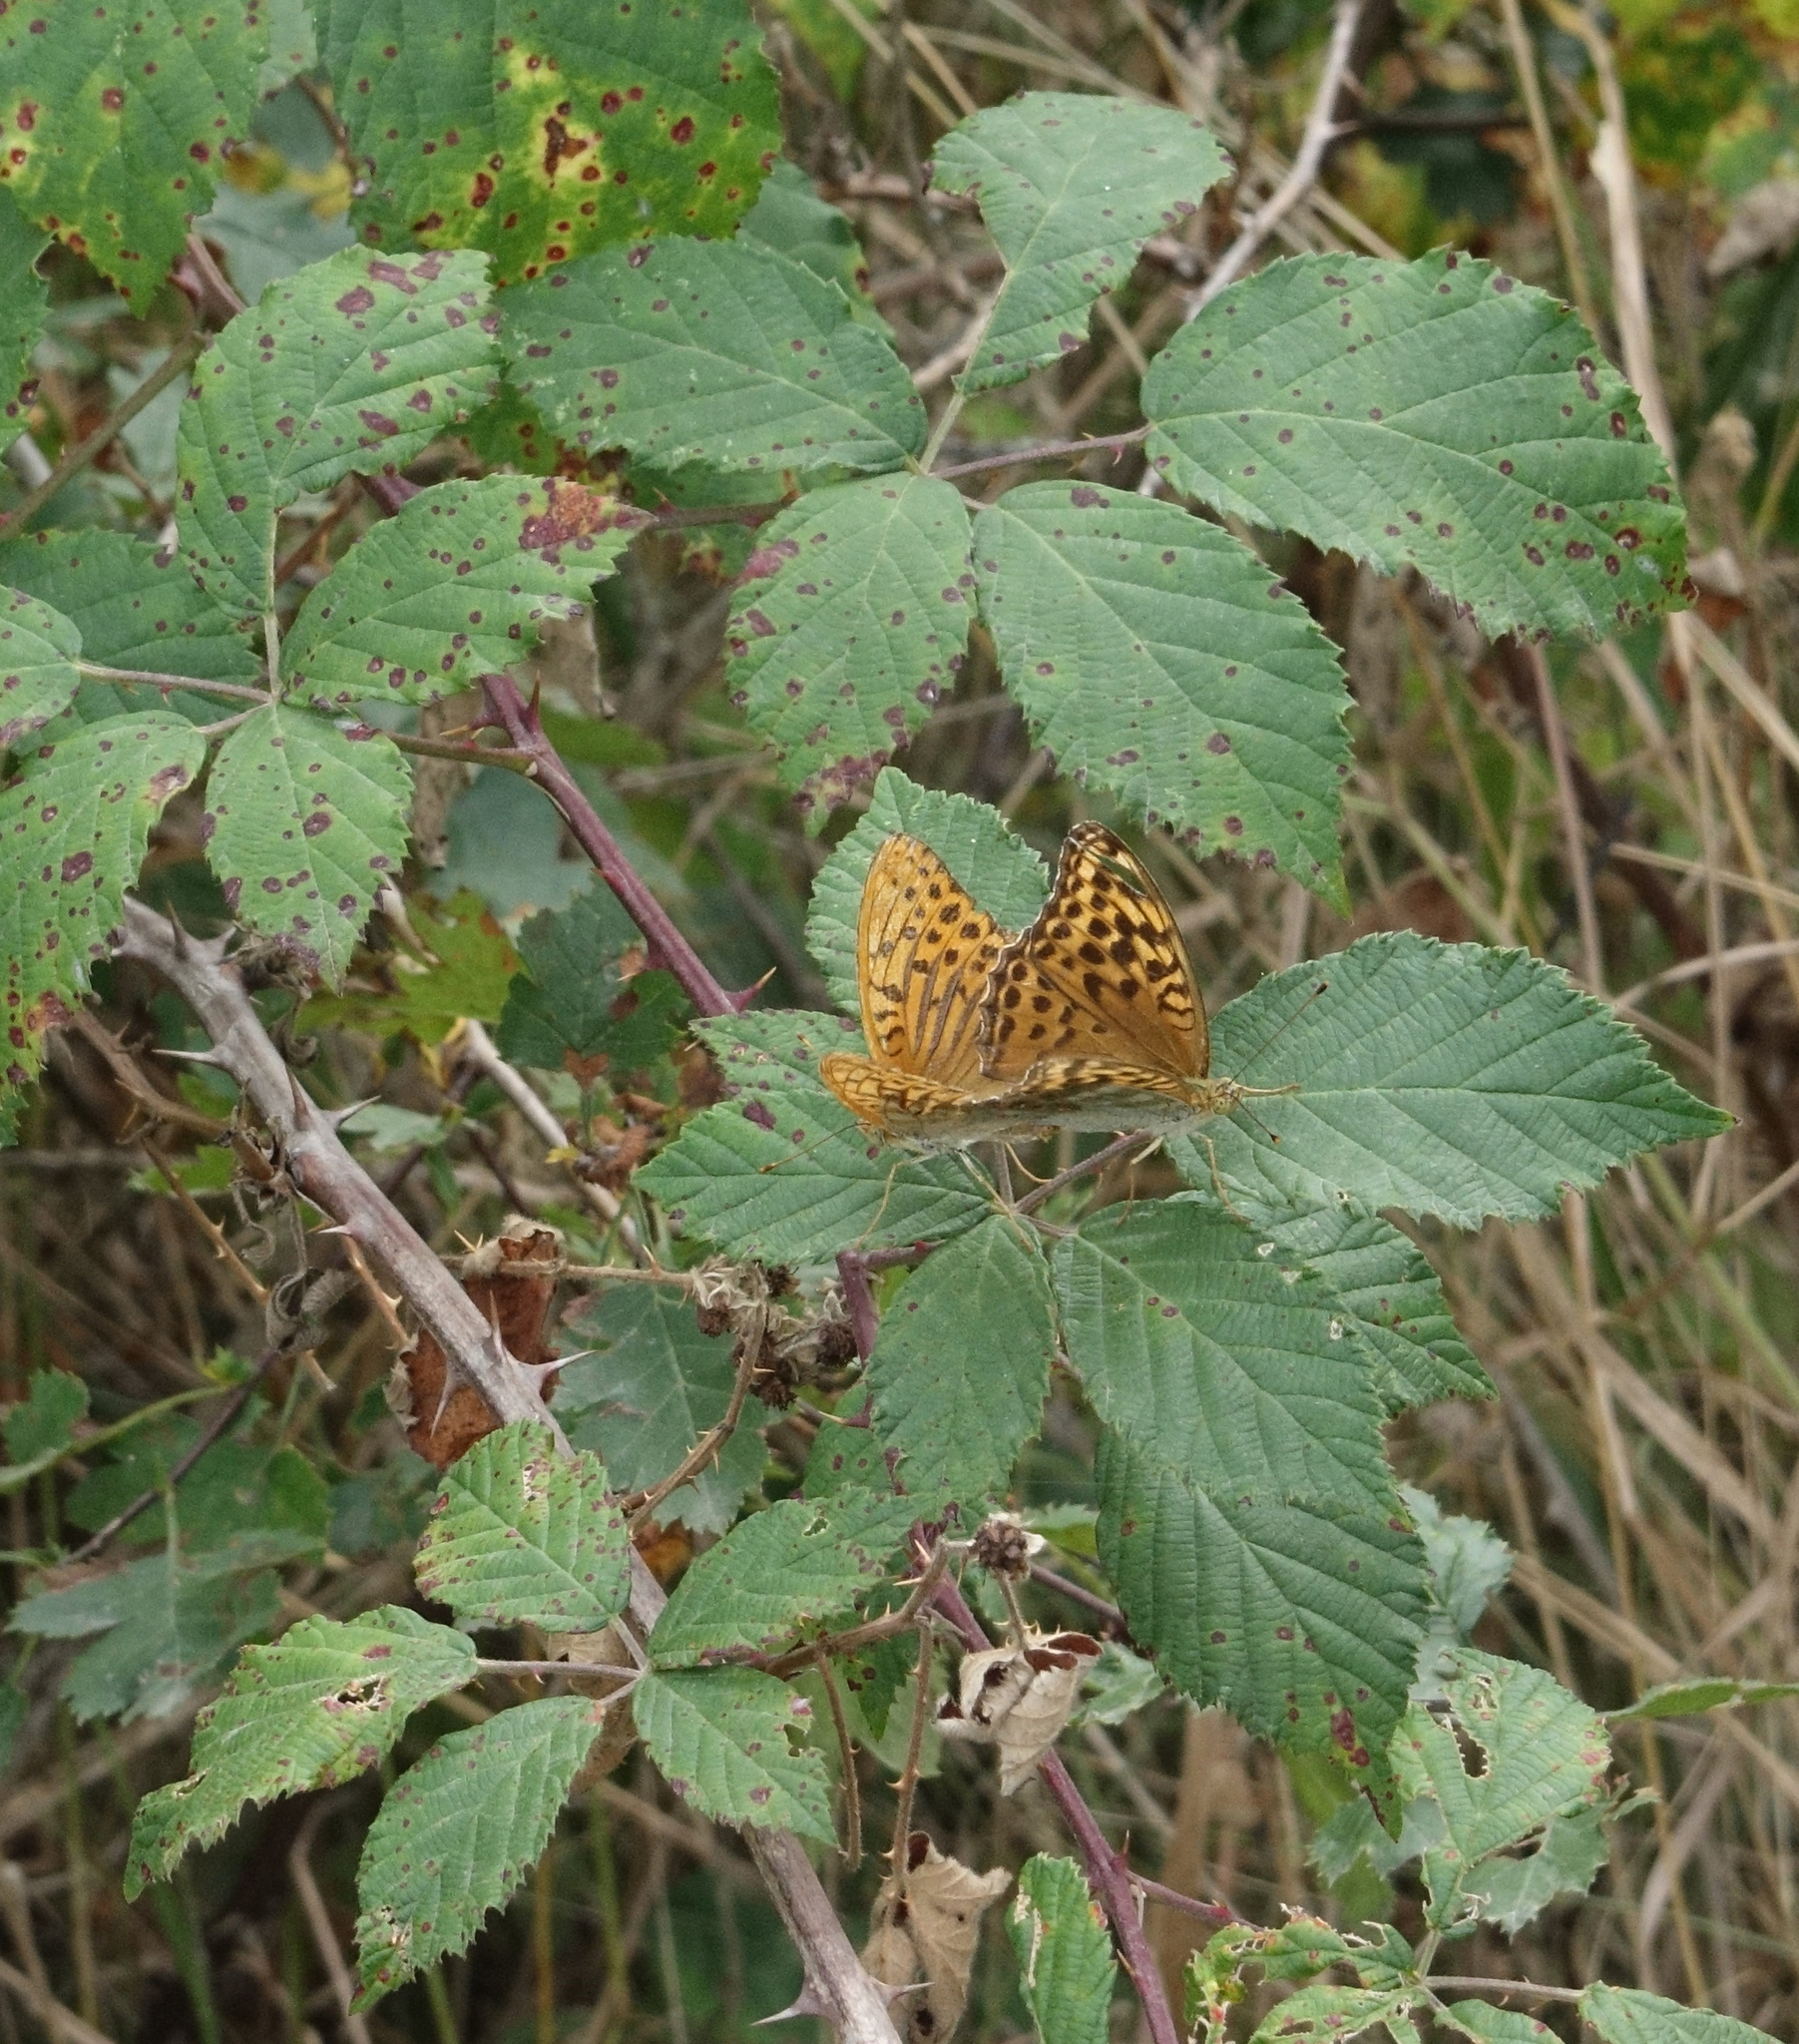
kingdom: Animalia
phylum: Arthropoda
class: Insecta
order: Lepidoptera
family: Nymphalidae
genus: Argynnis
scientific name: Argynnis paphia
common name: Silver-washed fritillary
